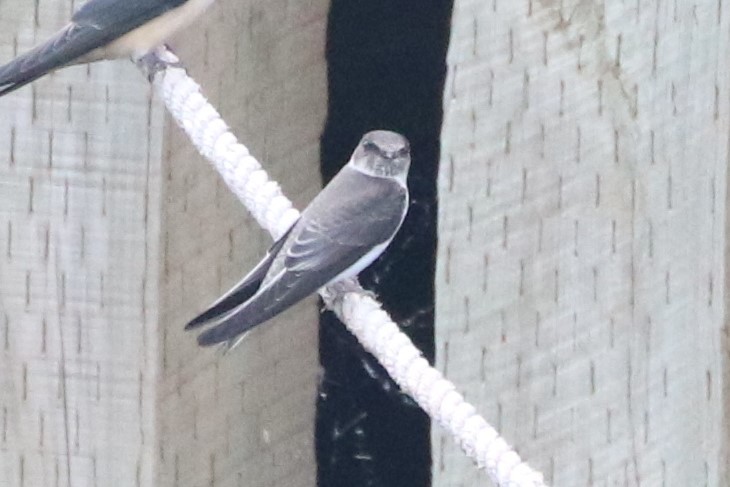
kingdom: Animalia
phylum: Chordata
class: Aves
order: Passeriformes
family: Hirundinidae
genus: Riparia
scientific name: Riparia riparia
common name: Sand martin
